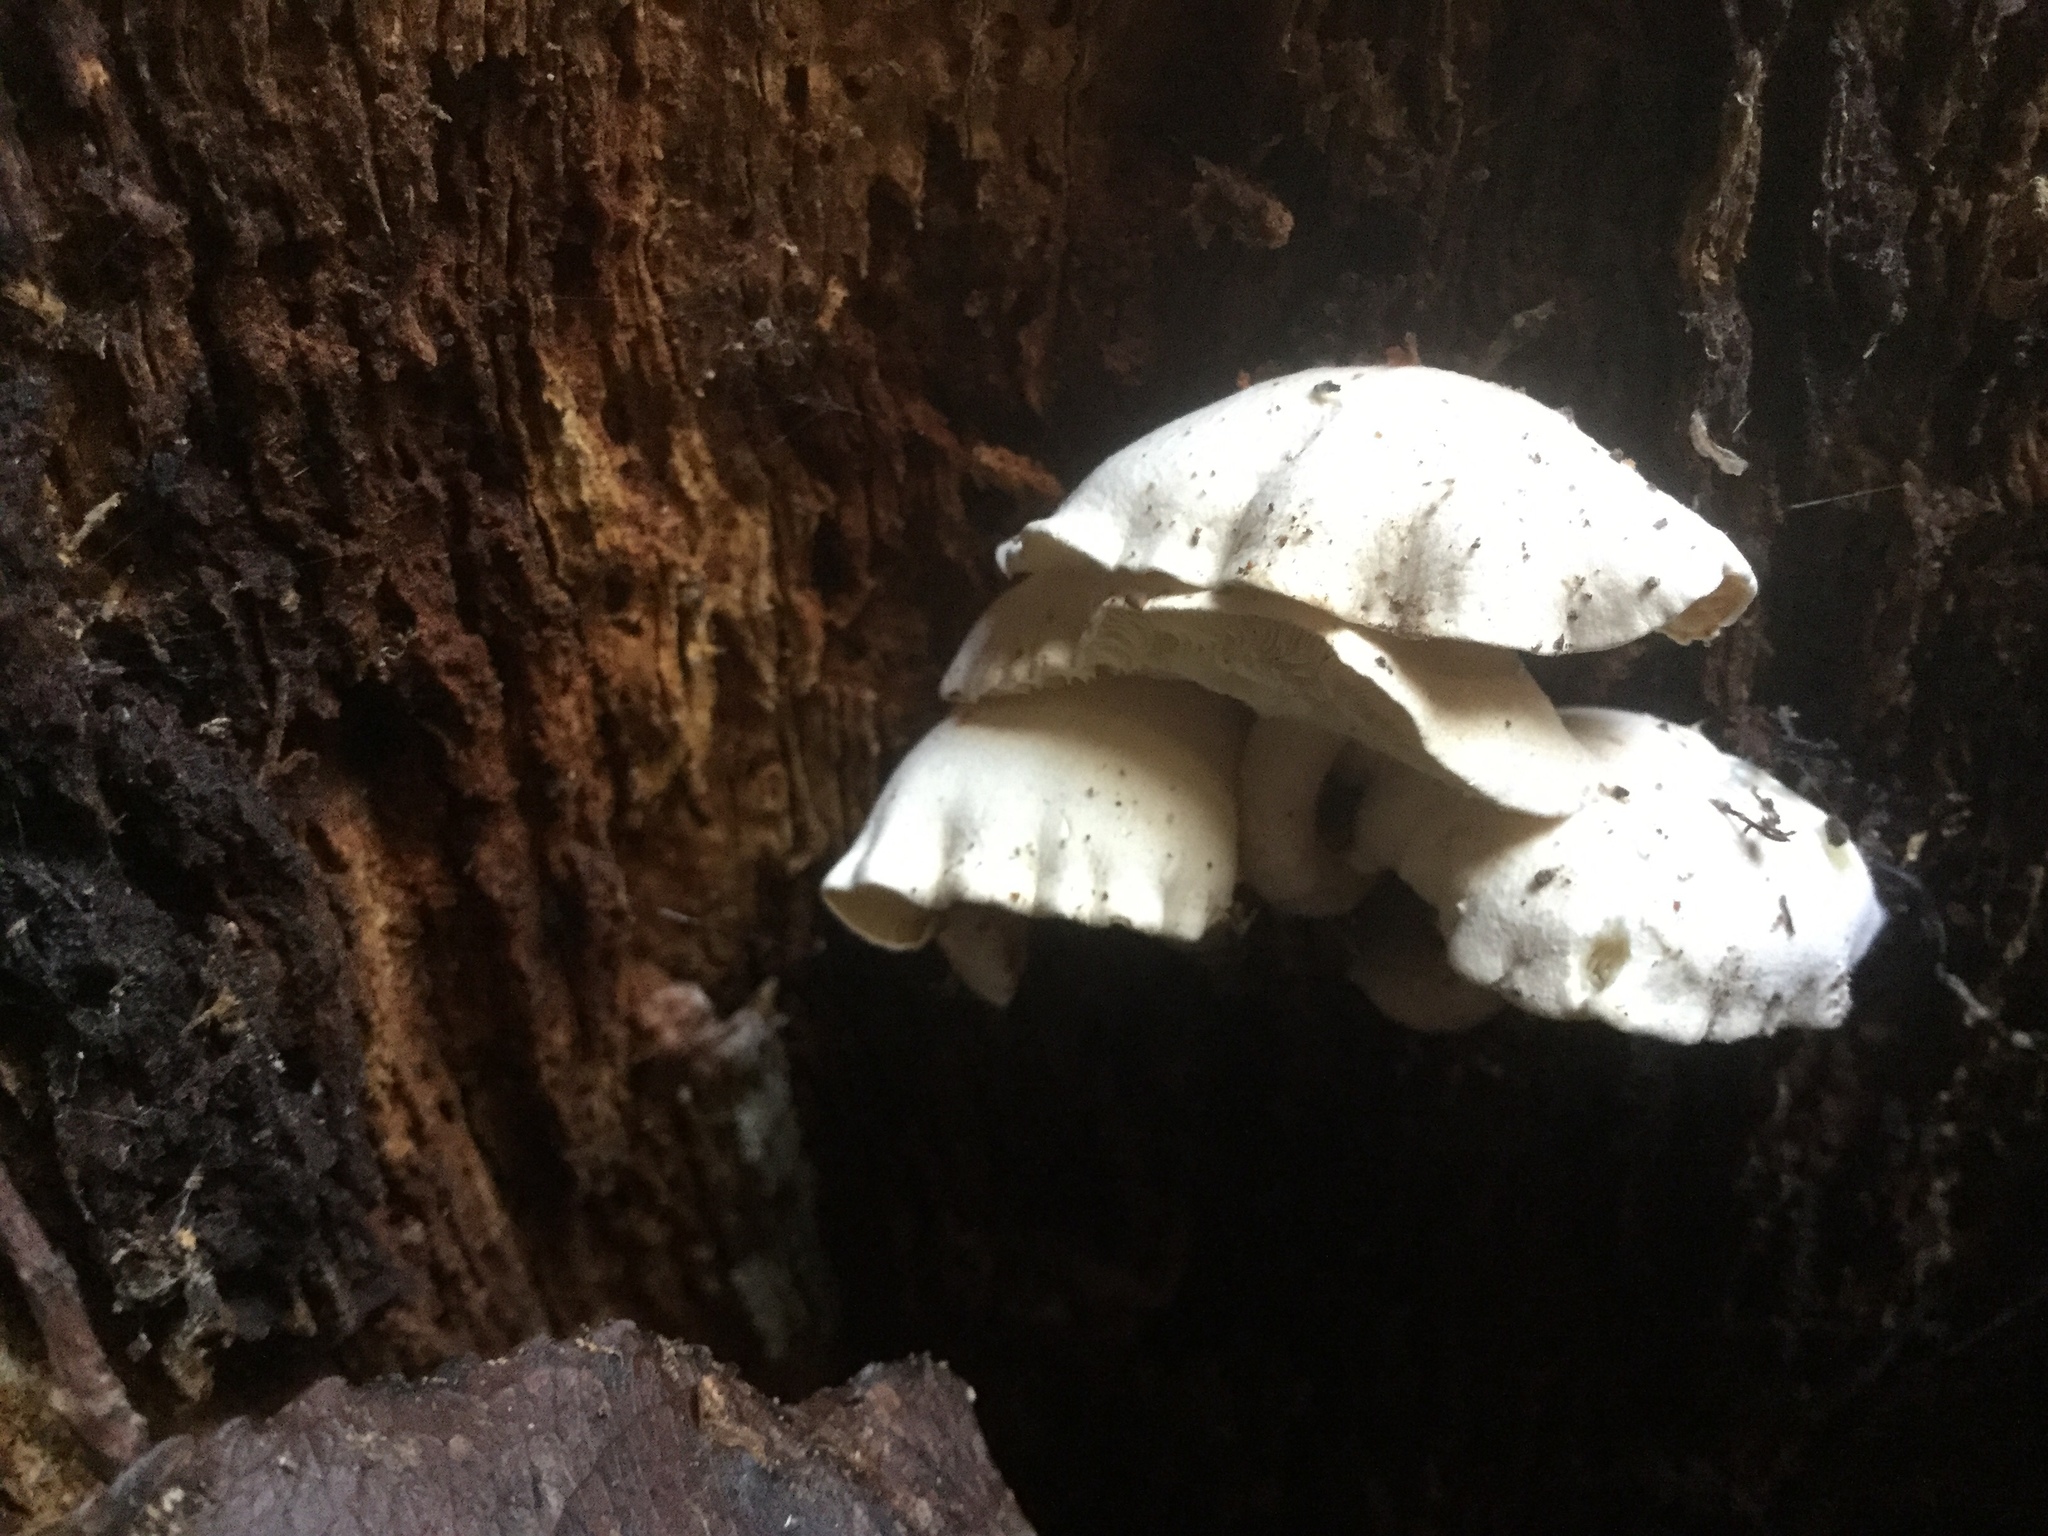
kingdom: Fungi
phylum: Basidiomycota
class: Agaricomycetes
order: Agaricales
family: Lyophyllaceae
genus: Ossicaulis
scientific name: Ossicaulis lignatilis
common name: Mealy oyster
